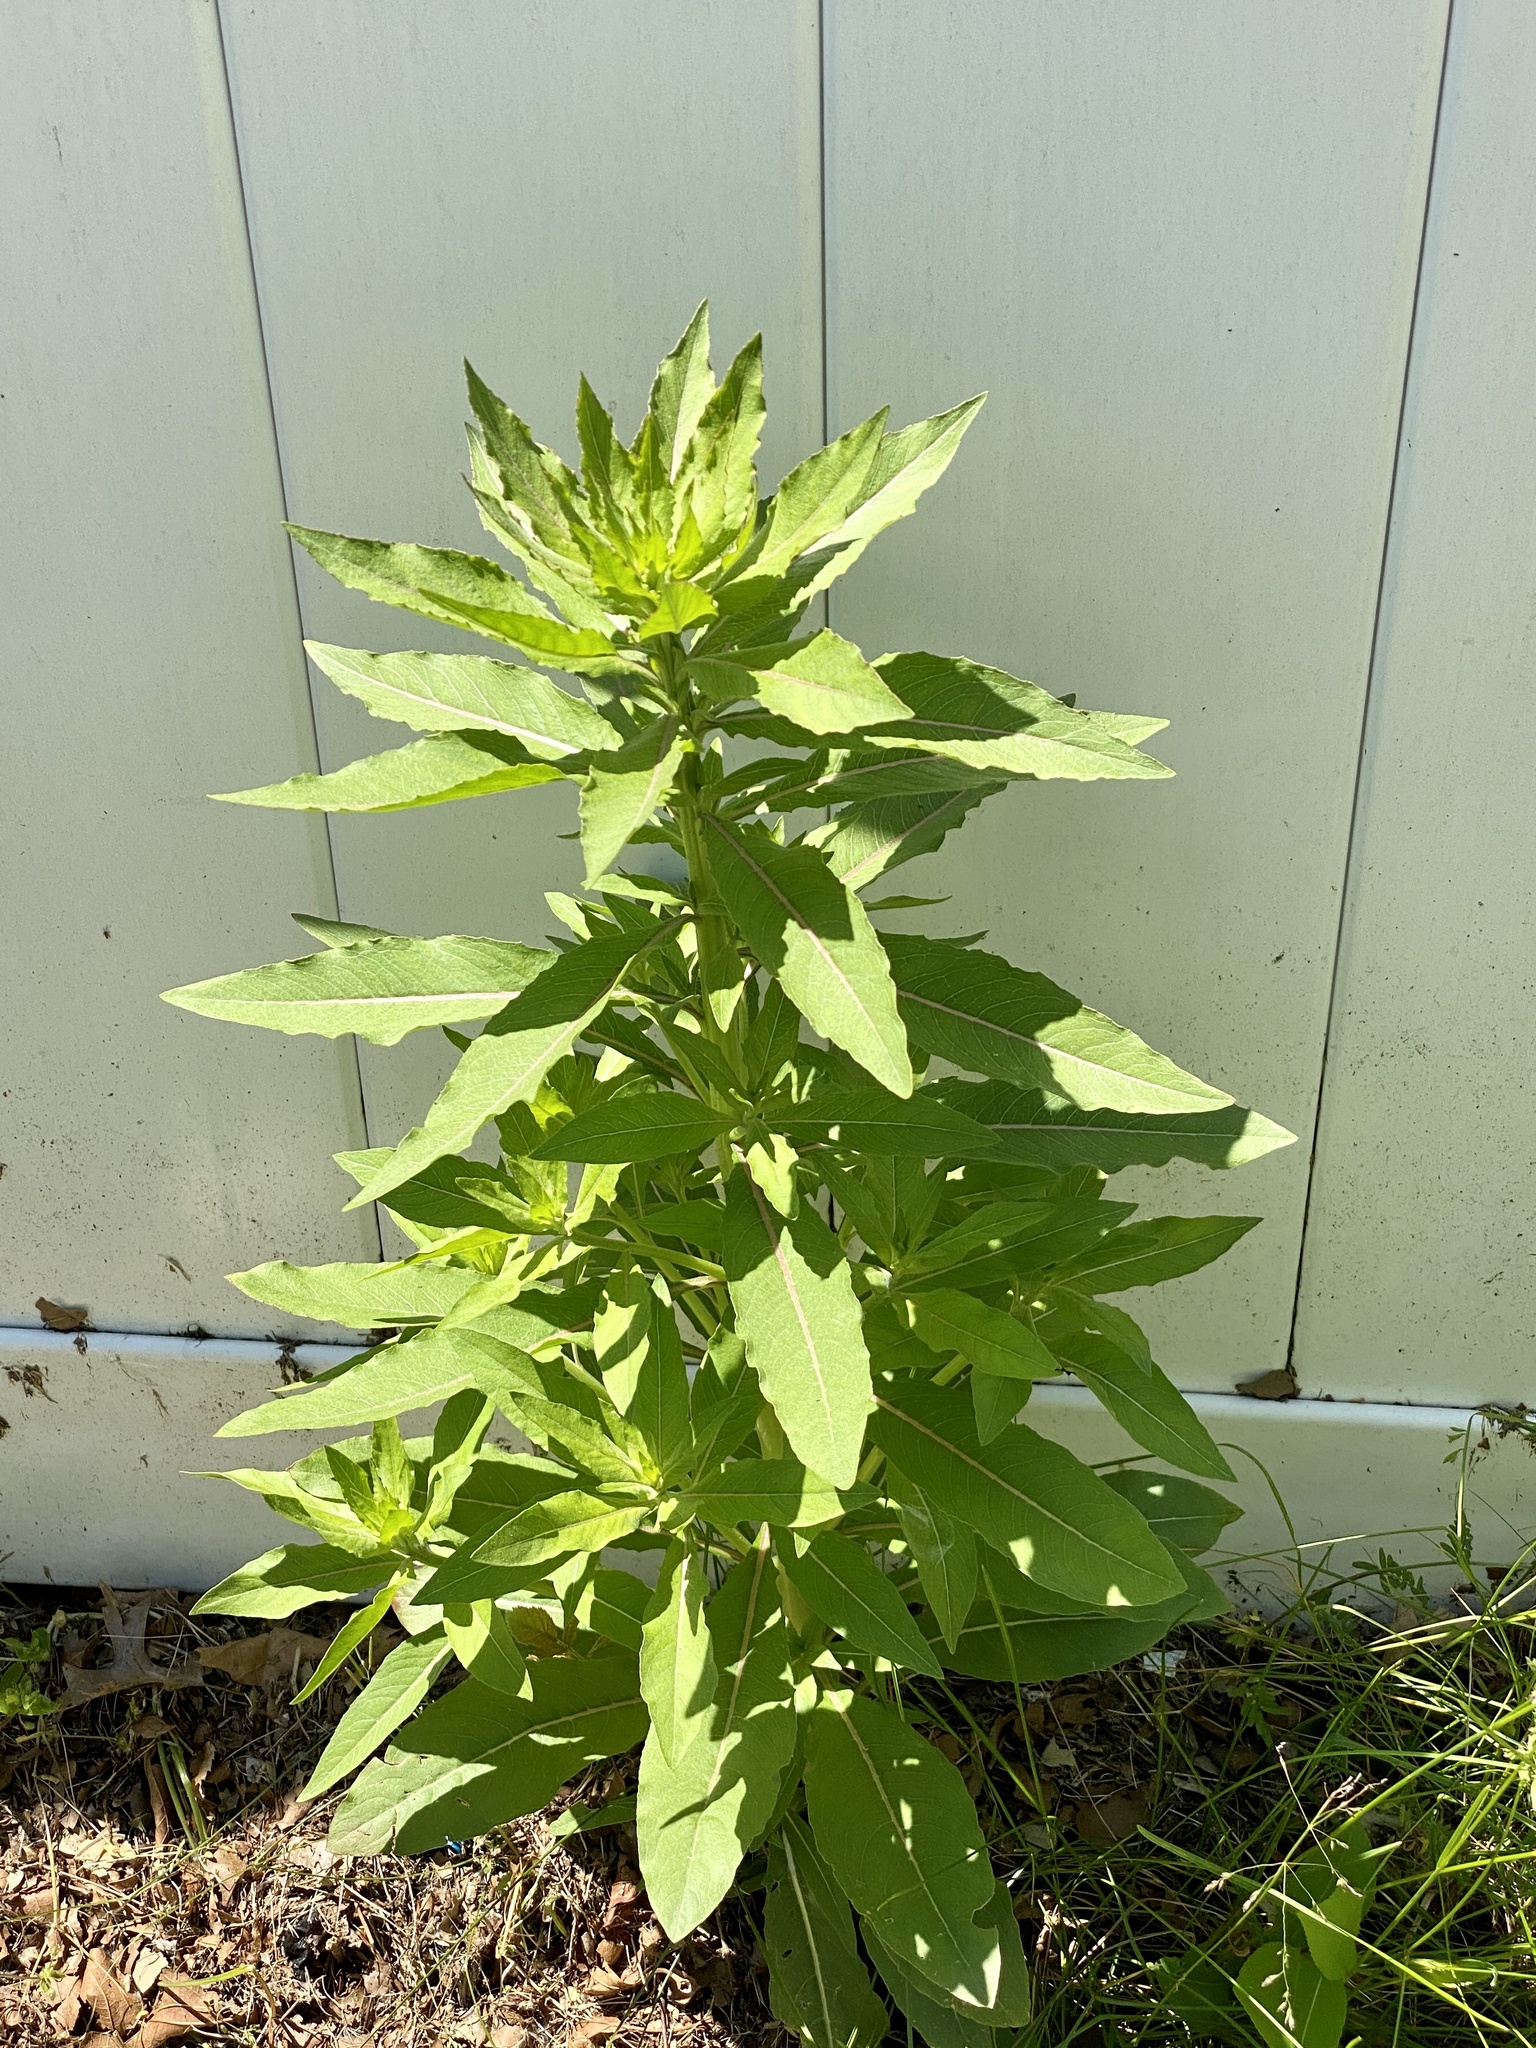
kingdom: Plantae
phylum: Tracheophyta
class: Magnoliopsida
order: Myrtales
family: Onagraceae
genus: Oenothera
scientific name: Oenothera biennis
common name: Common evening-primrose
